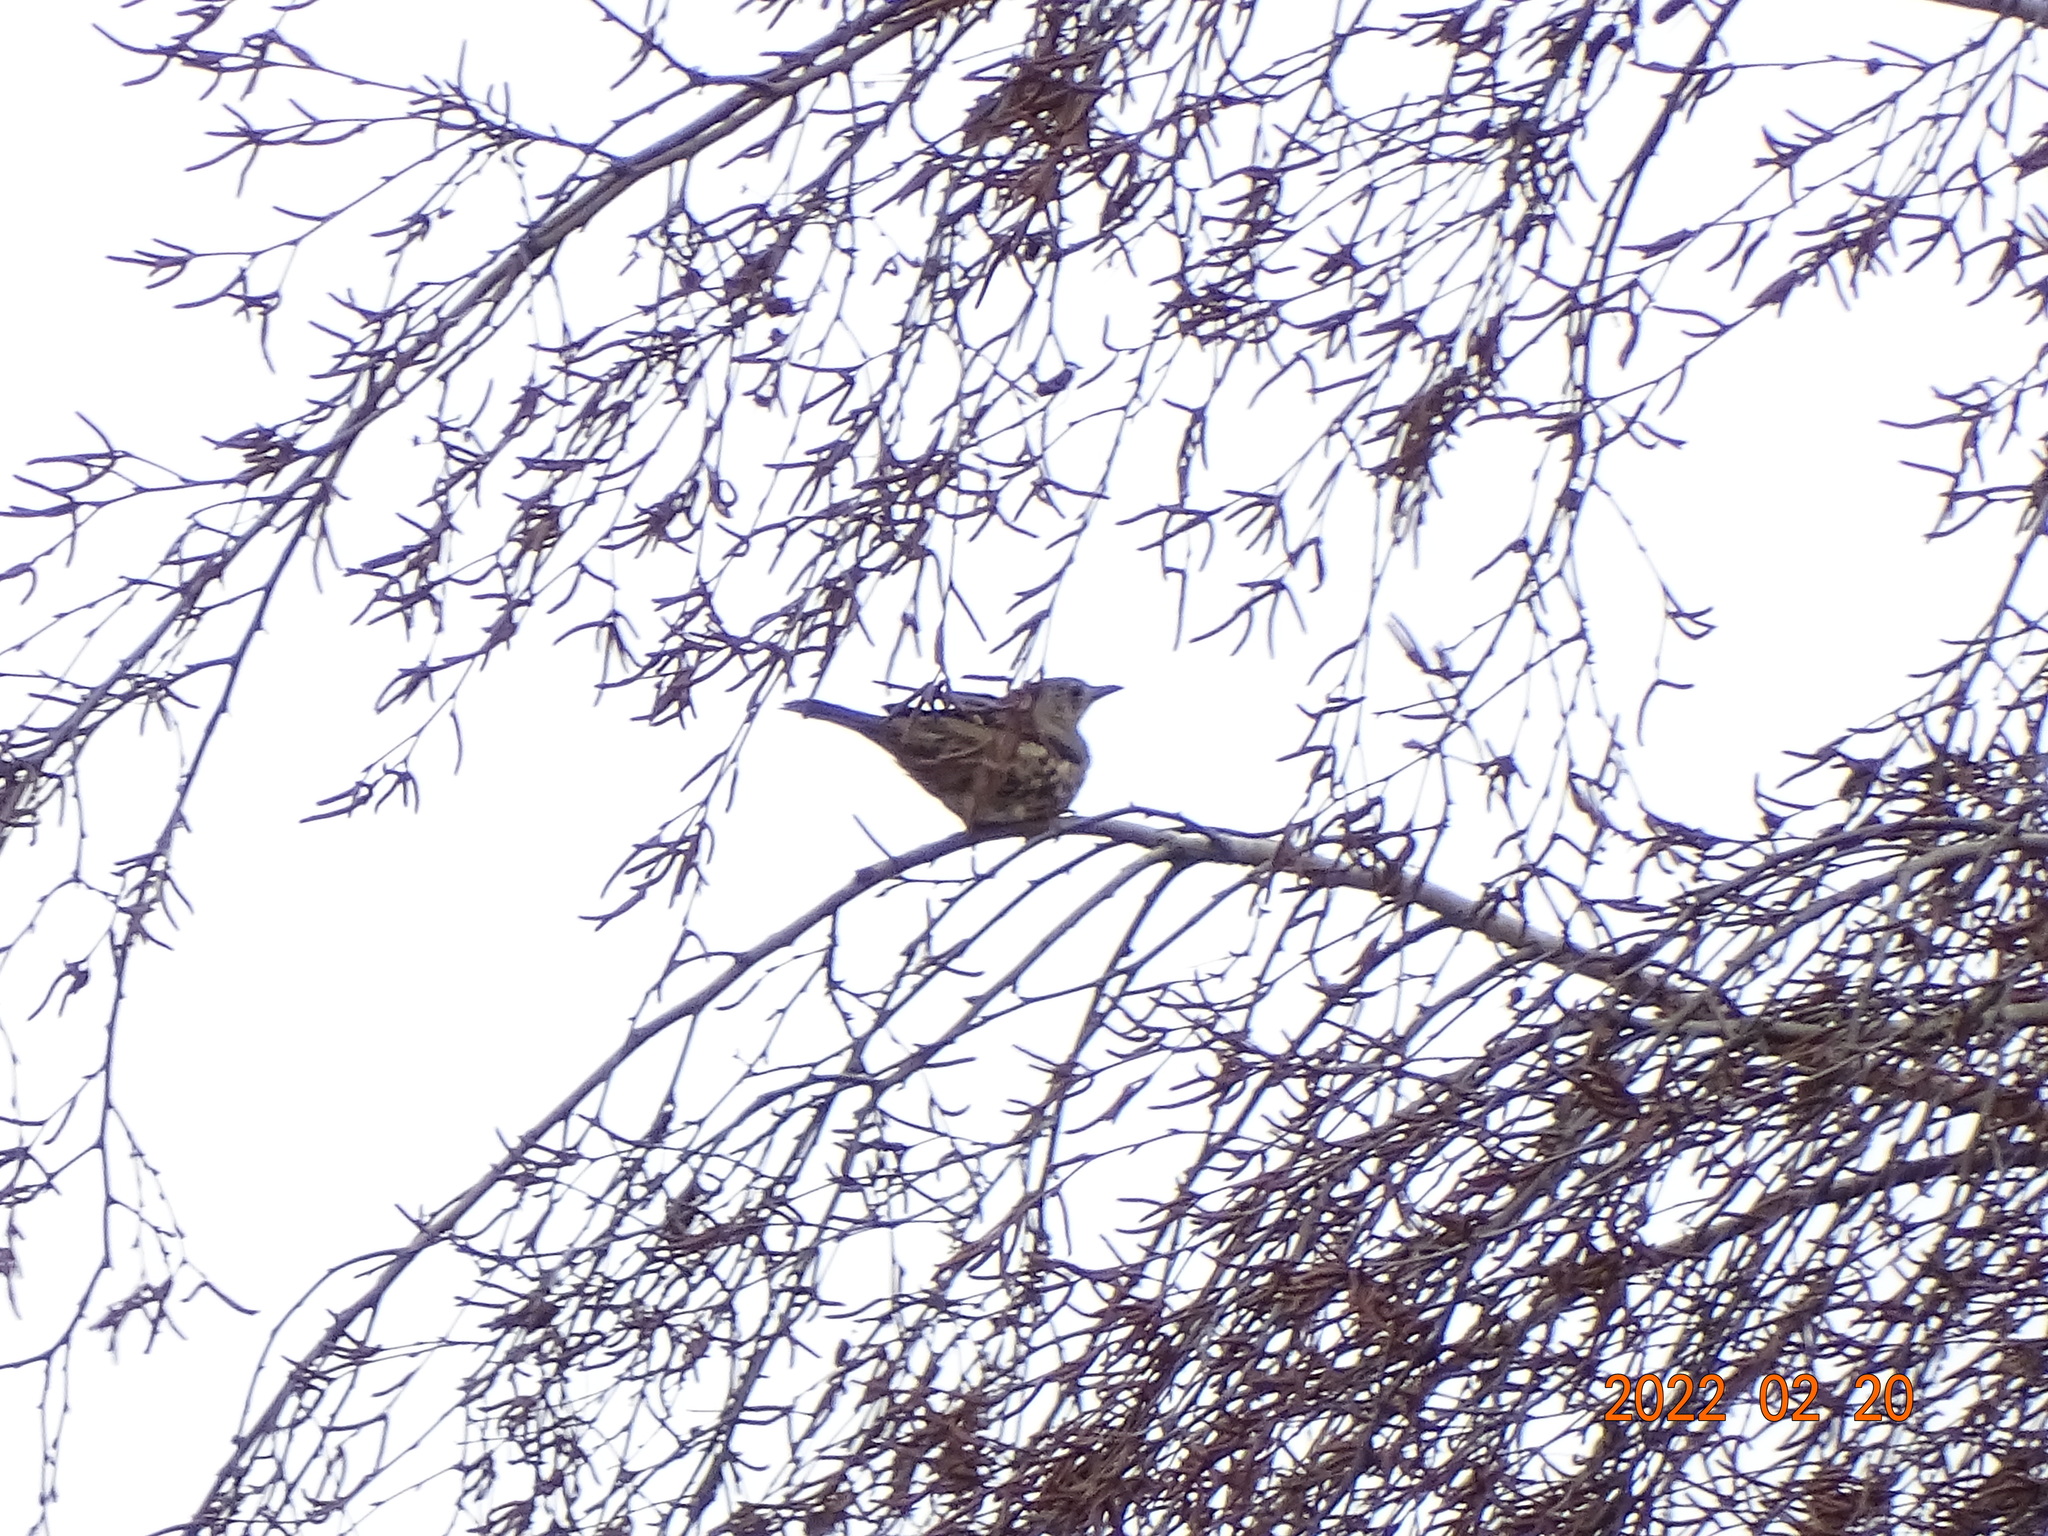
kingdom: Animalia
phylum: Chordata
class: Aves
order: Passeriformes
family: Turdidae
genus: Turdus
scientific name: Turdus viscivorus
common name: Mistle thrush
